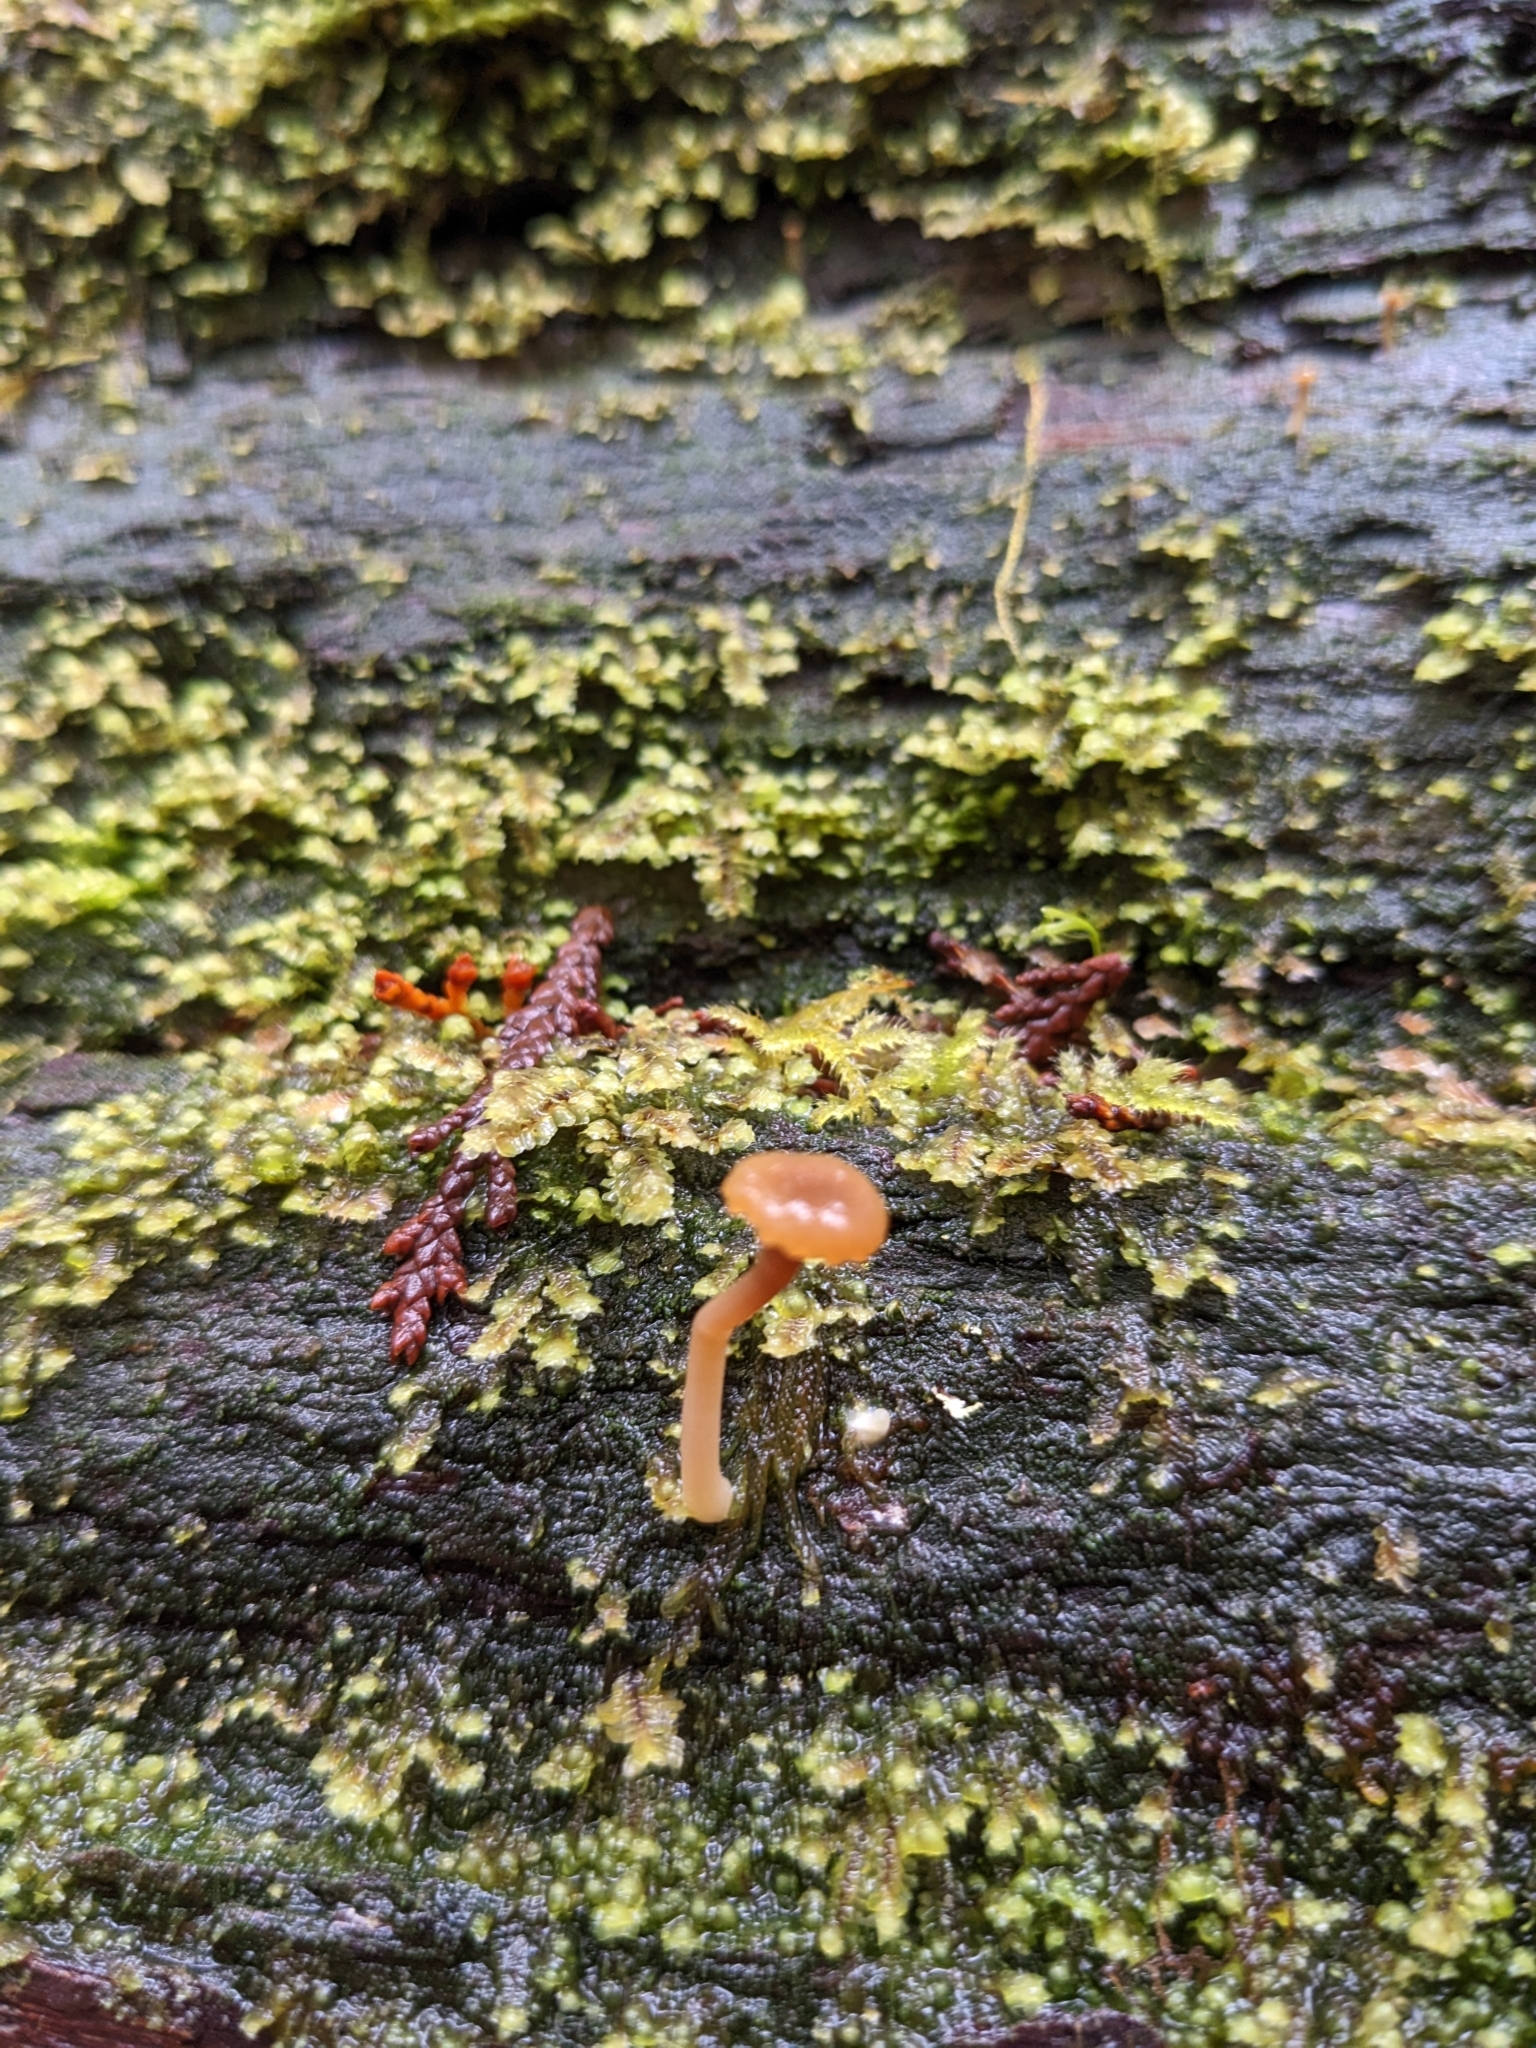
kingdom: Fungi
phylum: Basidiomycota
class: Agaricomycetes
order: Agaricales
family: Hygrophoraceae
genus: Lichenomphalia
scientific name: Lichenomphalia
